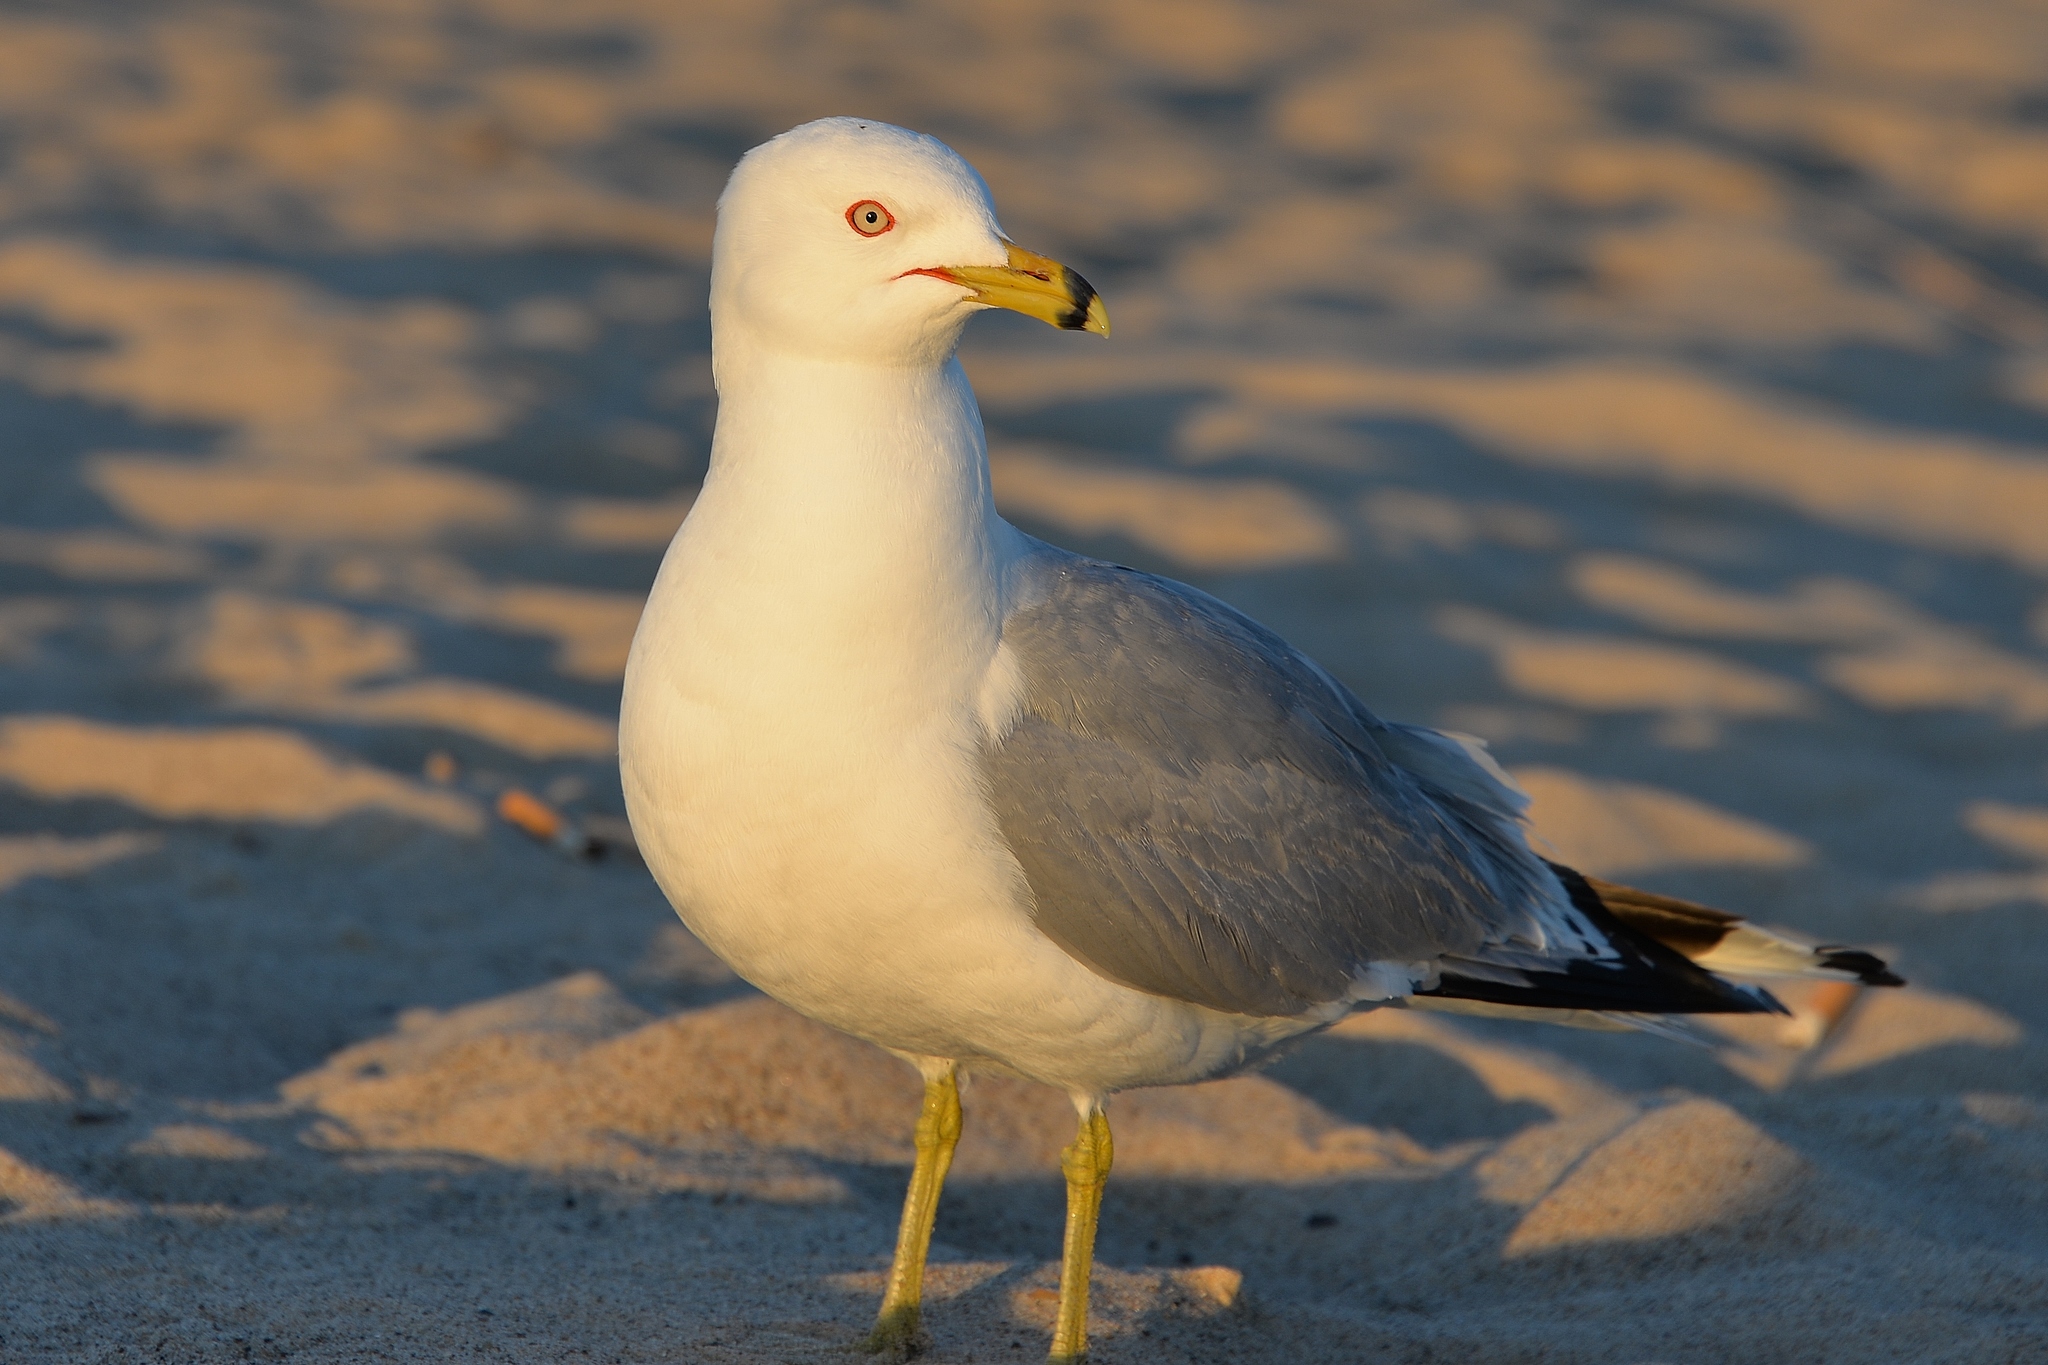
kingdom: Animalia
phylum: Chordata
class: Aves
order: Charadriiformes
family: Laridae
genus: Larus
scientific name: Larus delawarensis
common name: Ring-billed gull
